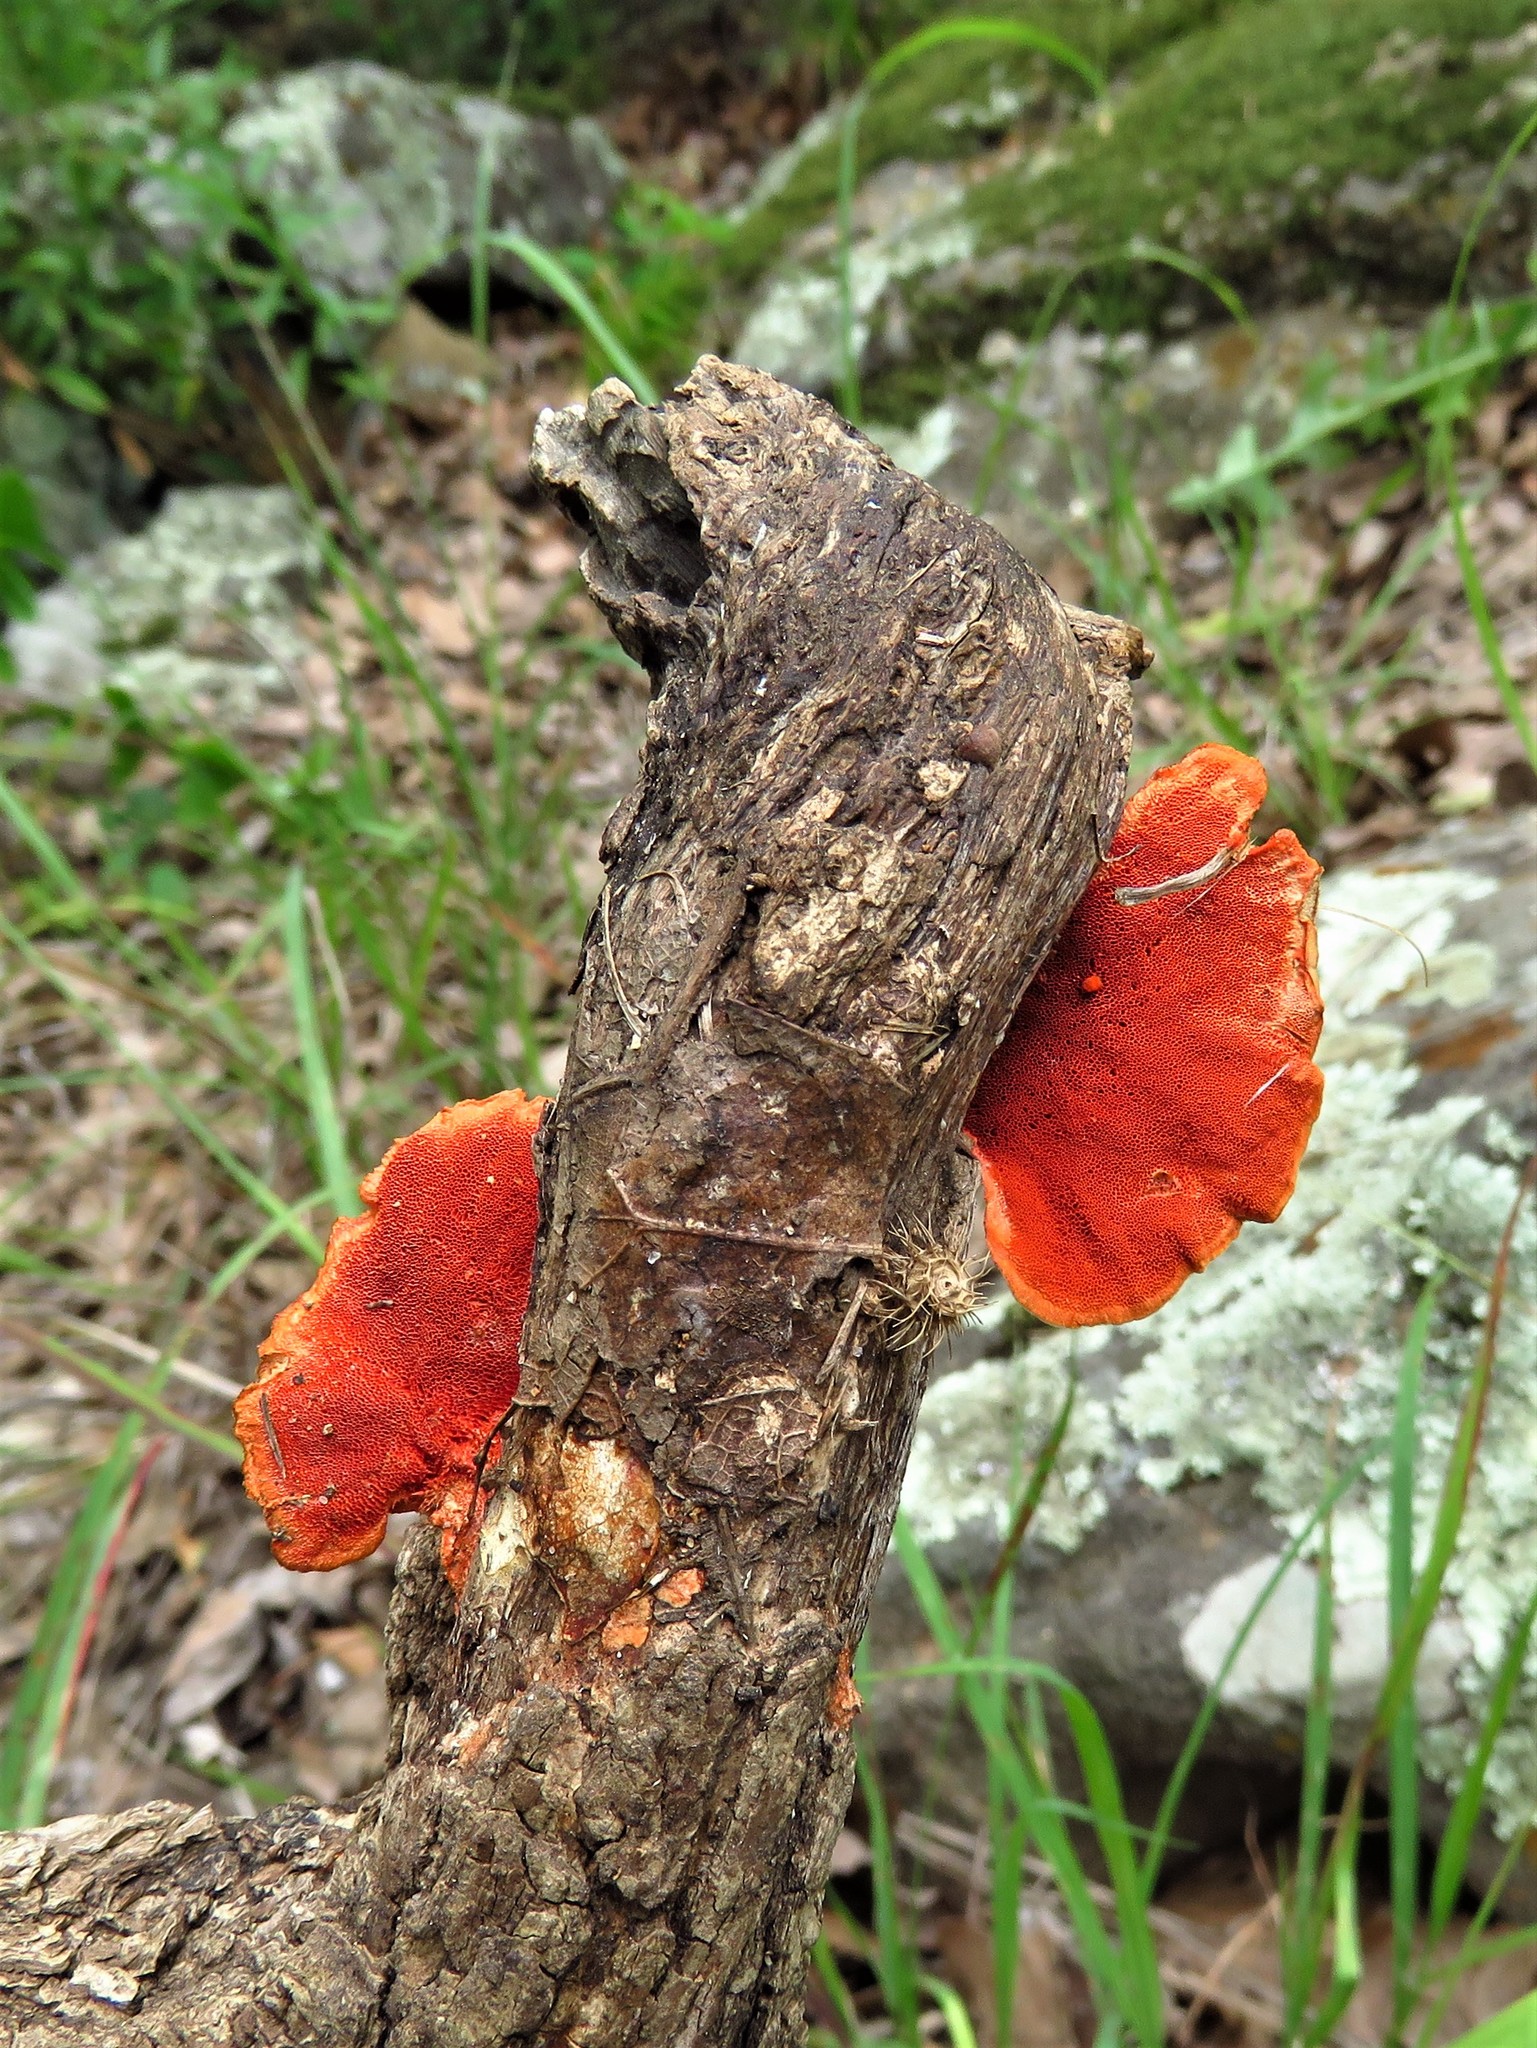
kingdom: Fungi
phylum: Basidiomycota
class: Agaricomycetes
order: Polyporales
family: Polyporaceae
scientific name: Polyporaceae
